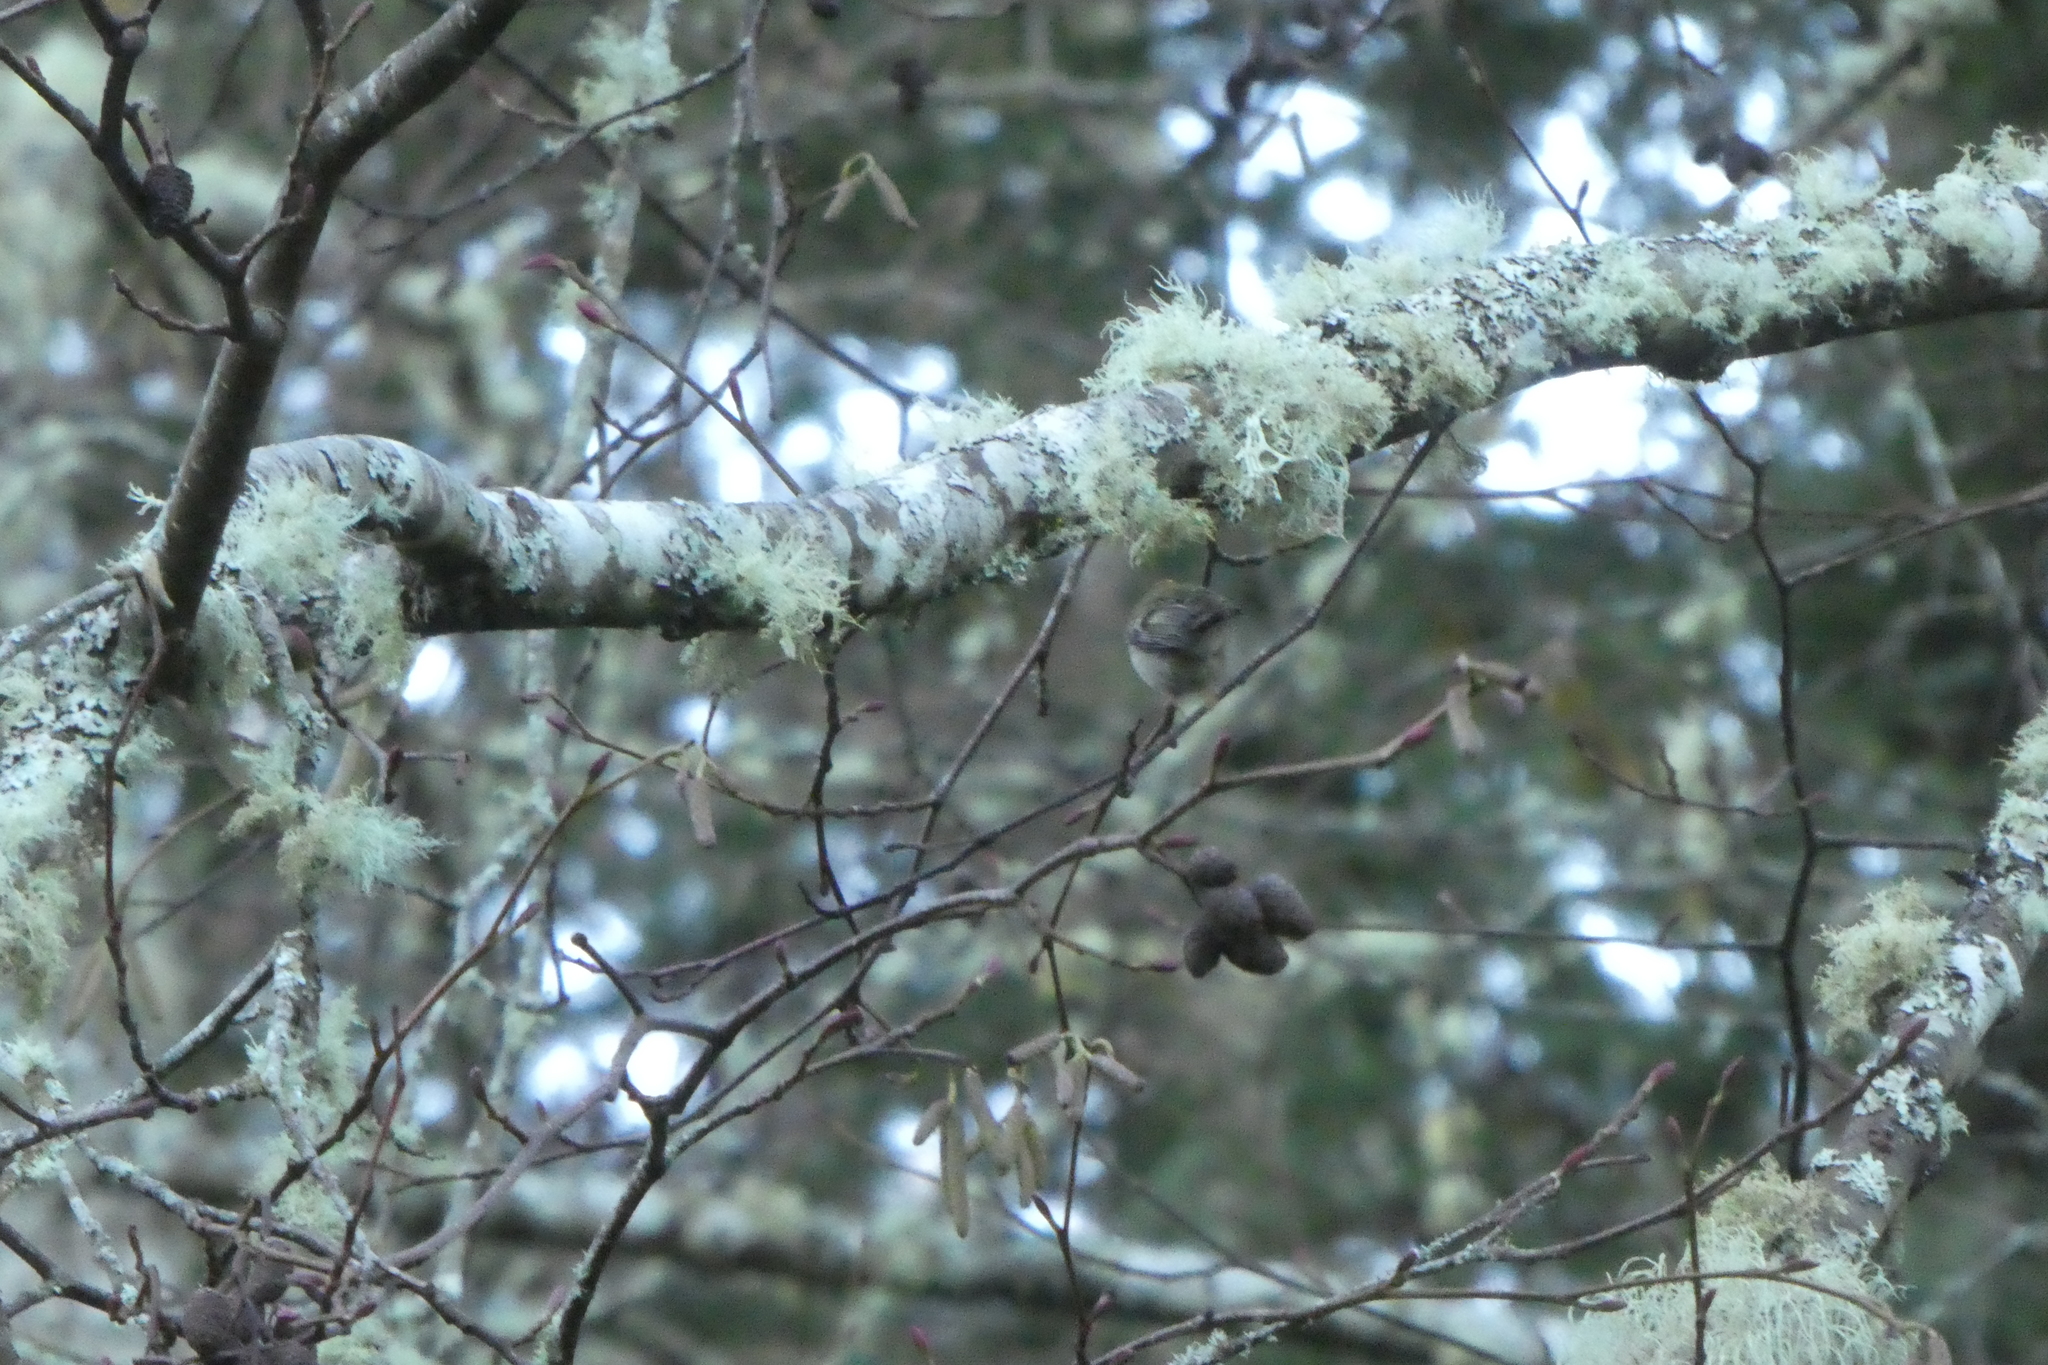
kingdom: Animalia
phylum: Chordata
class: Aves
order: Passeriformes
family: Regulidae
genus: Regulus
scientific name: Regulus satrapa
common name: Golden-crowned kinglet
